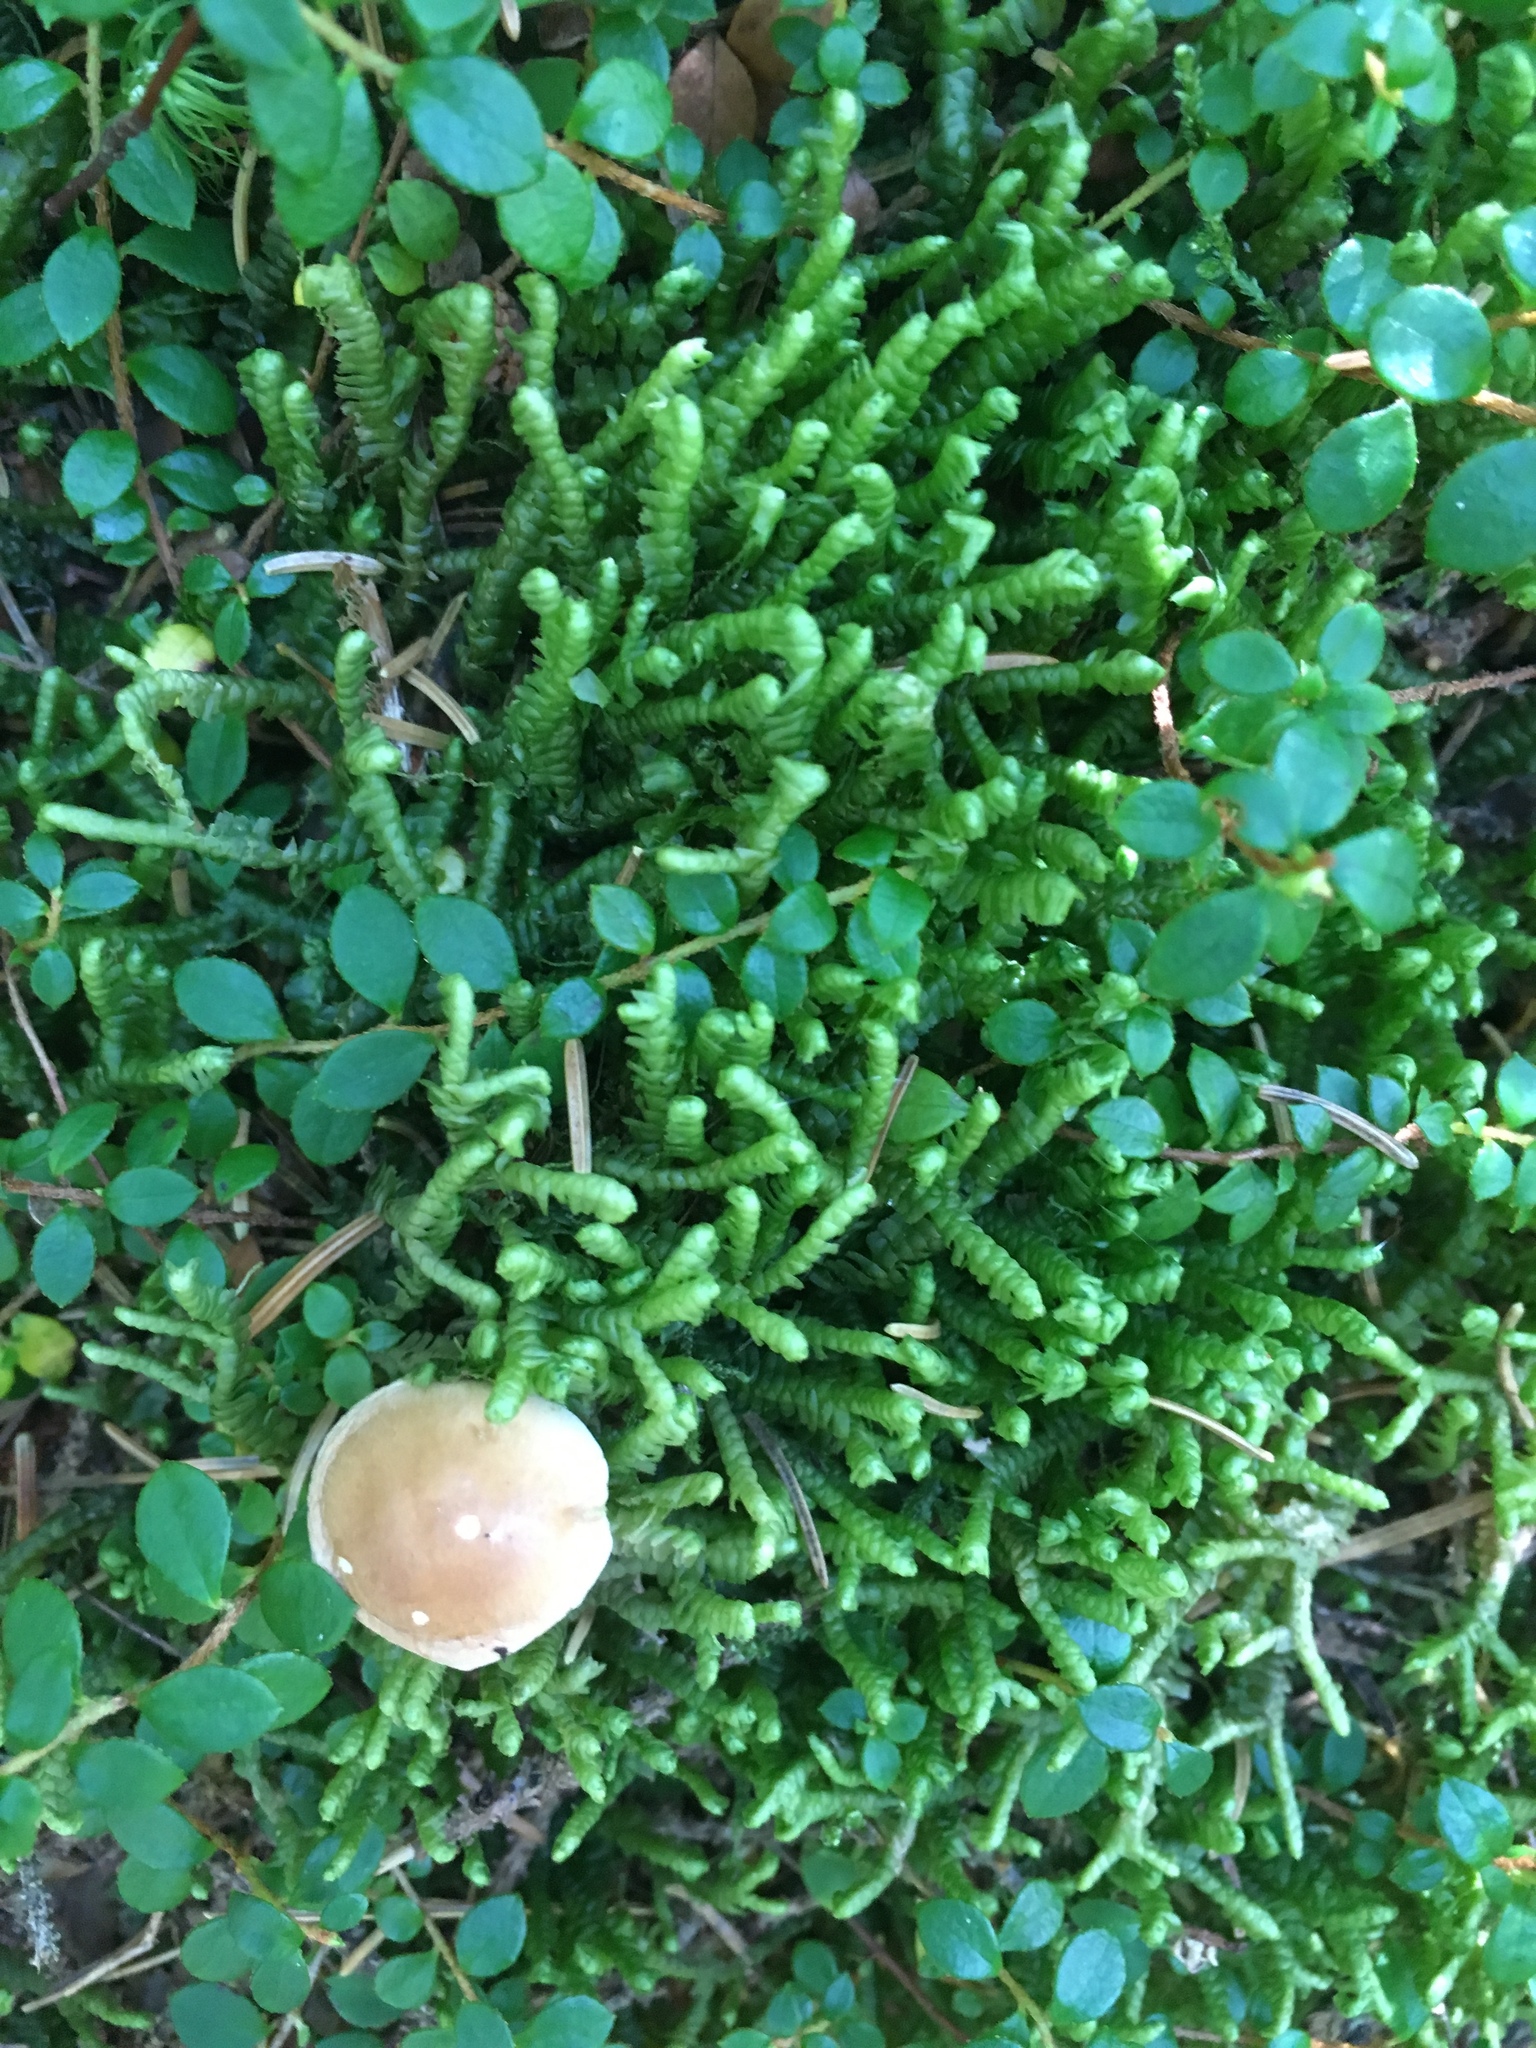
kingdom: Plantae
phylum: Marchantiophyta
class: Jungermanniopsida
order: Jungermanniales
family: Lepidoziaceae
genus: Bazzania
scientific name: Bazzania
